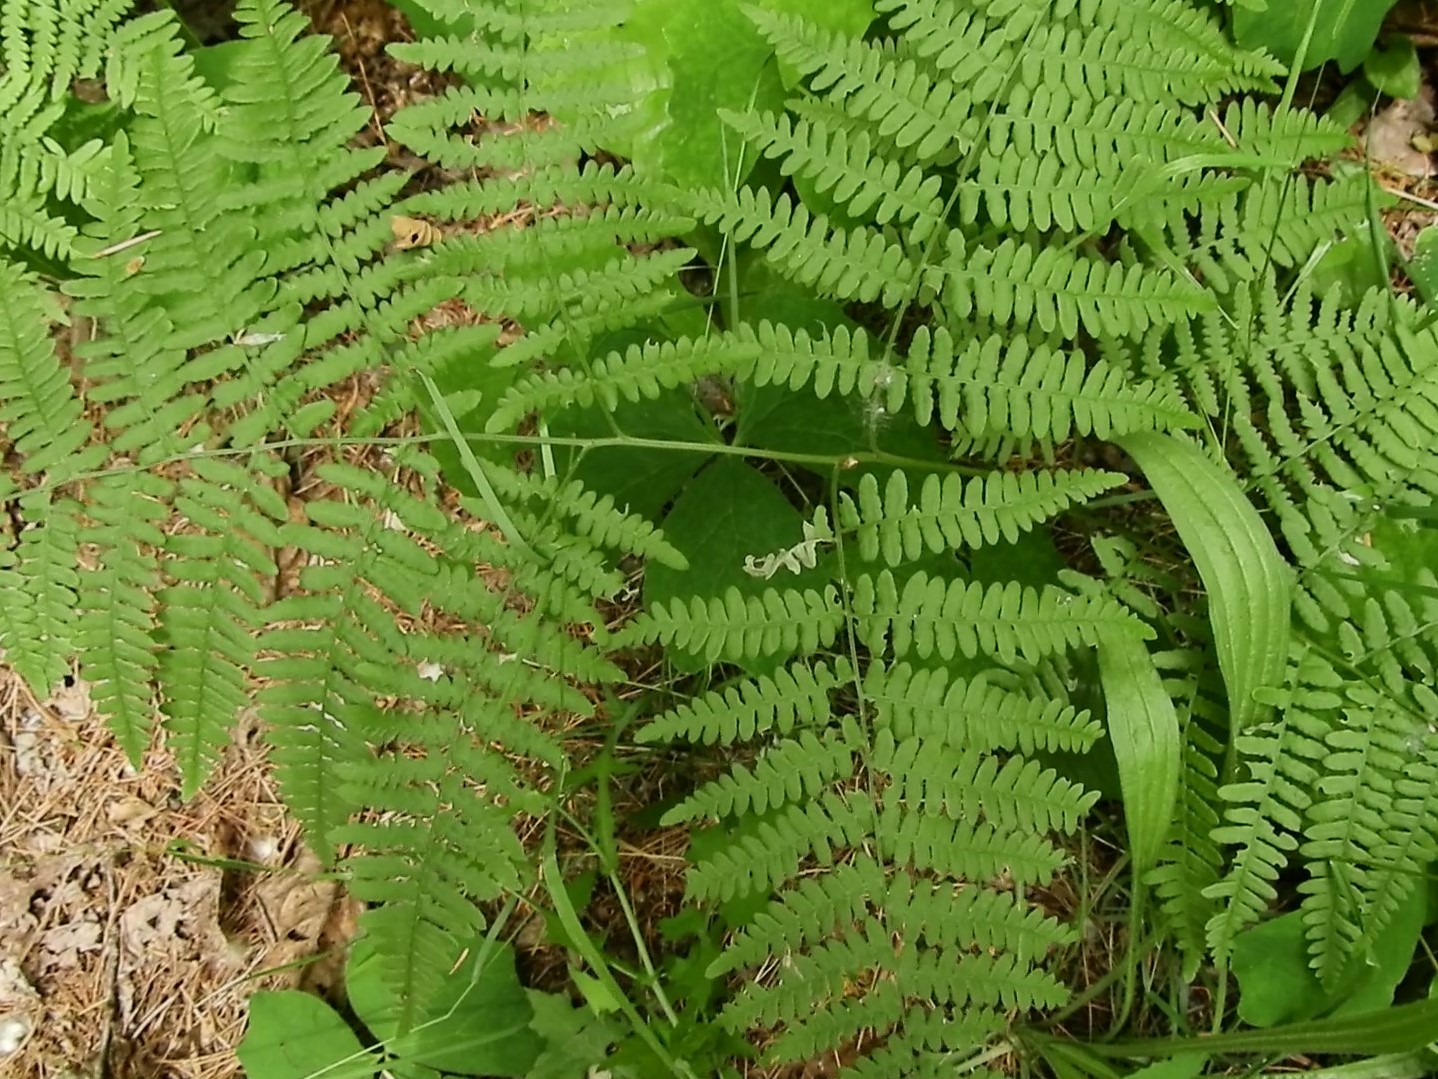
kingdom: Plantae
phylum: Tracheophyta
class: Polypodiopsida
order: Polypodiales
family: Dennstaedtiaceae
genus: Pteridium
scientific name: Pteridium aquilinum
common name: Bracken
